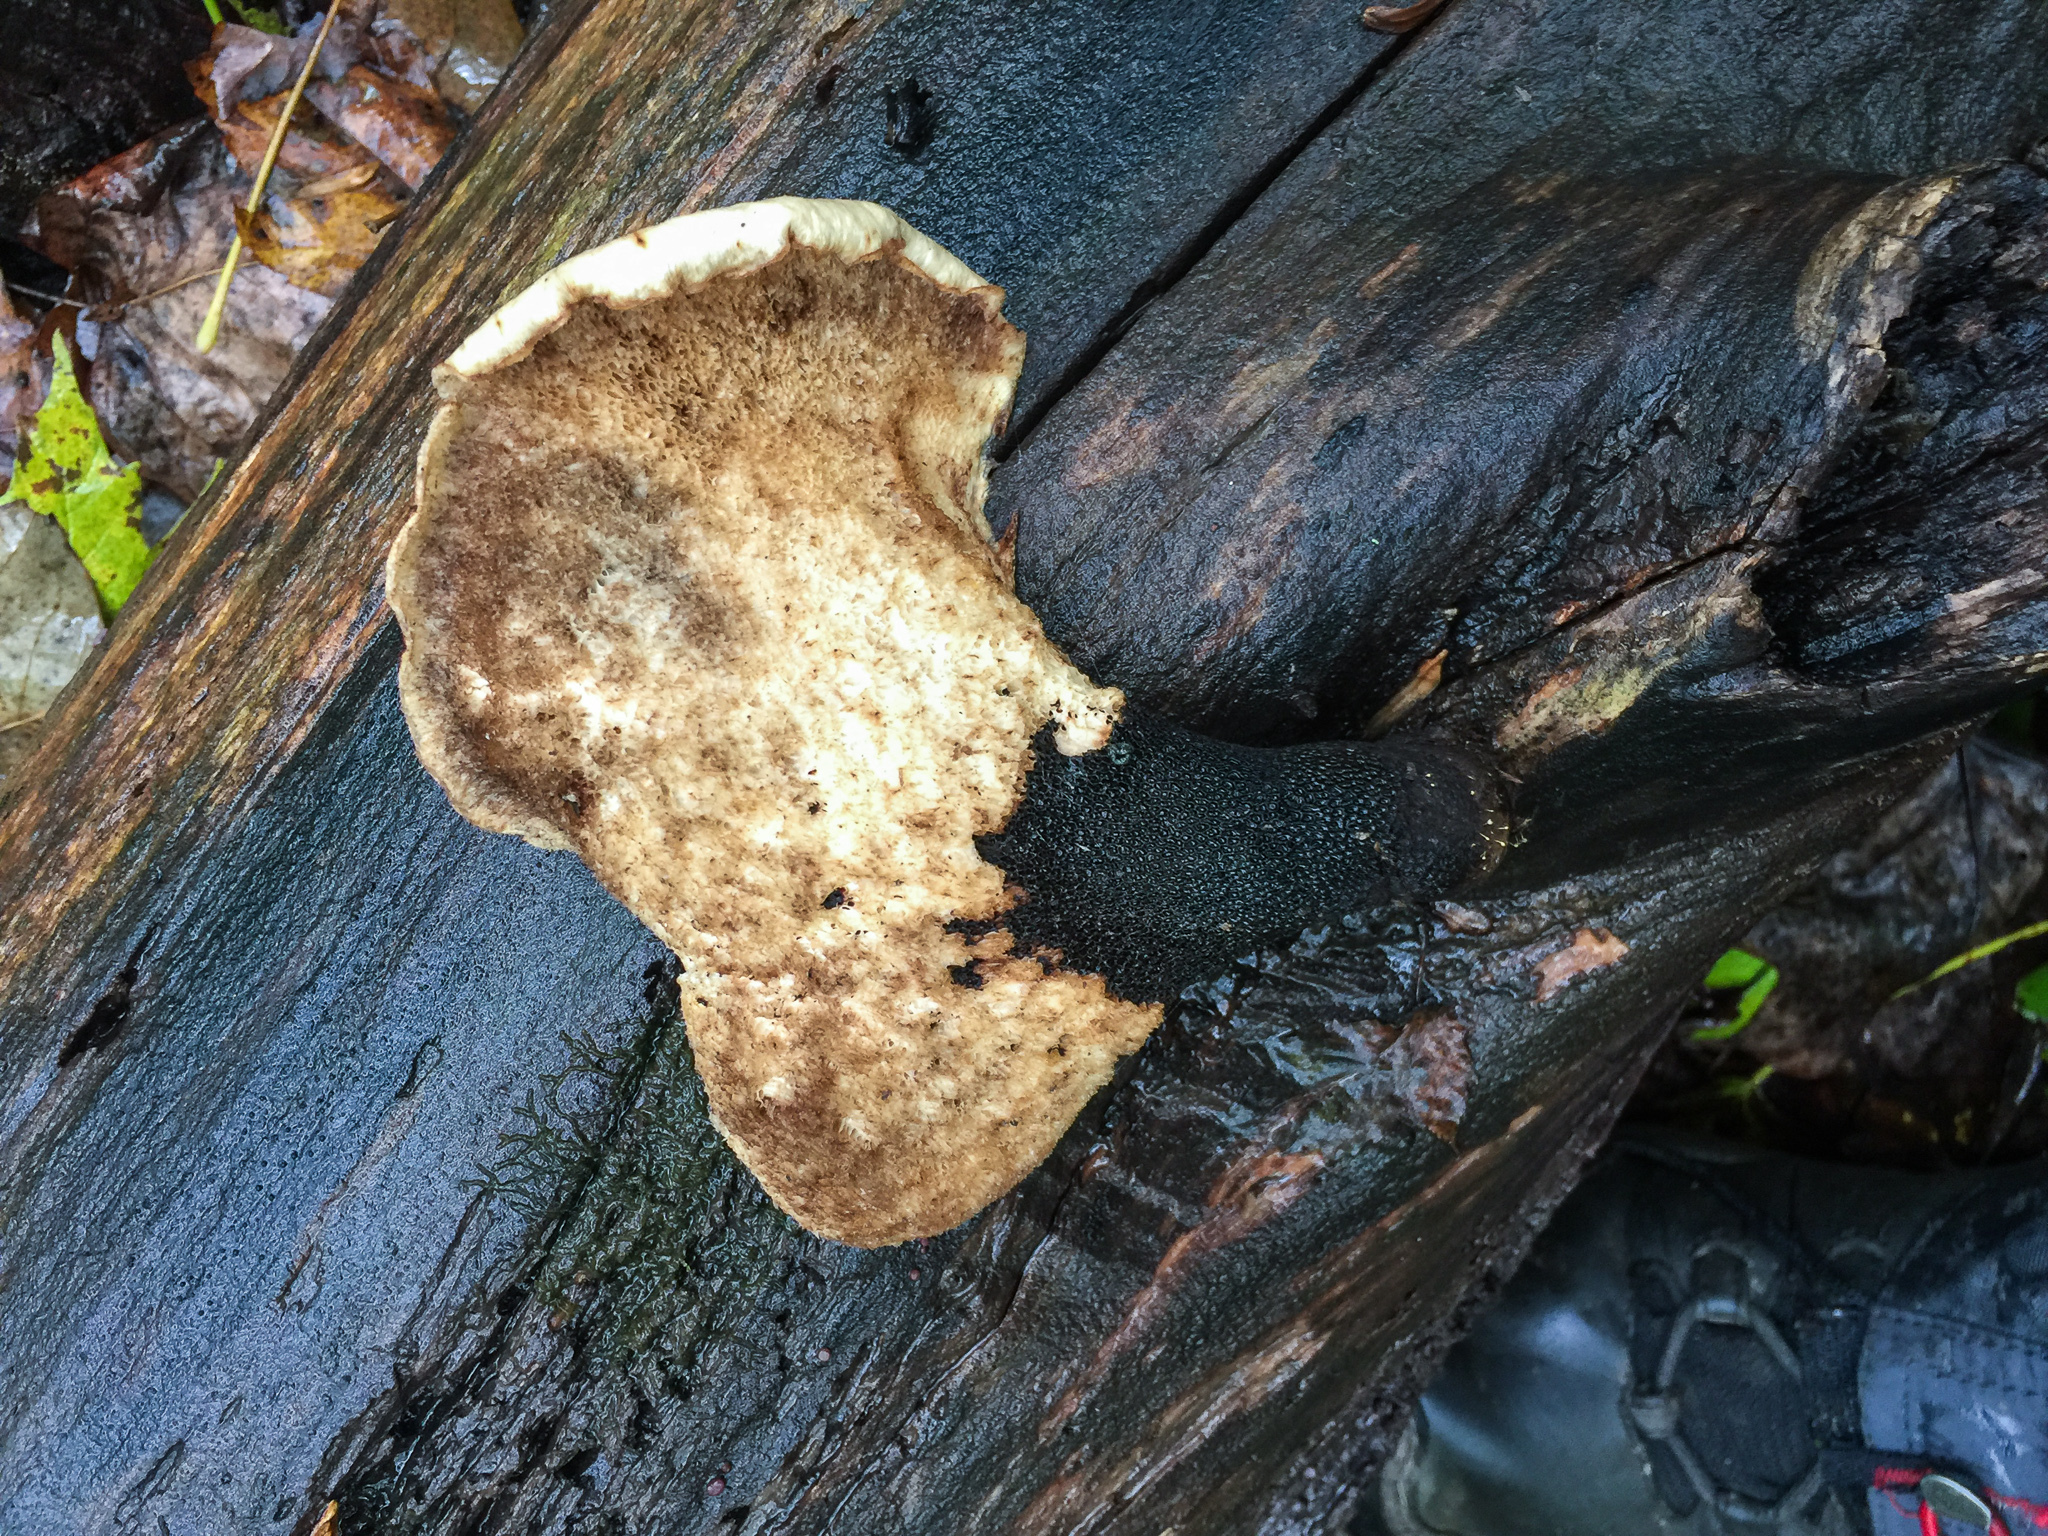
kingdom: Fungi
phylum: Basidiomycota
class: Agaricomycetes
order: Polyporales
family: Polyporaceae
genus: Cerioporus
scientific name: Cerioporus squamosus
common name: Dryad's saddle
